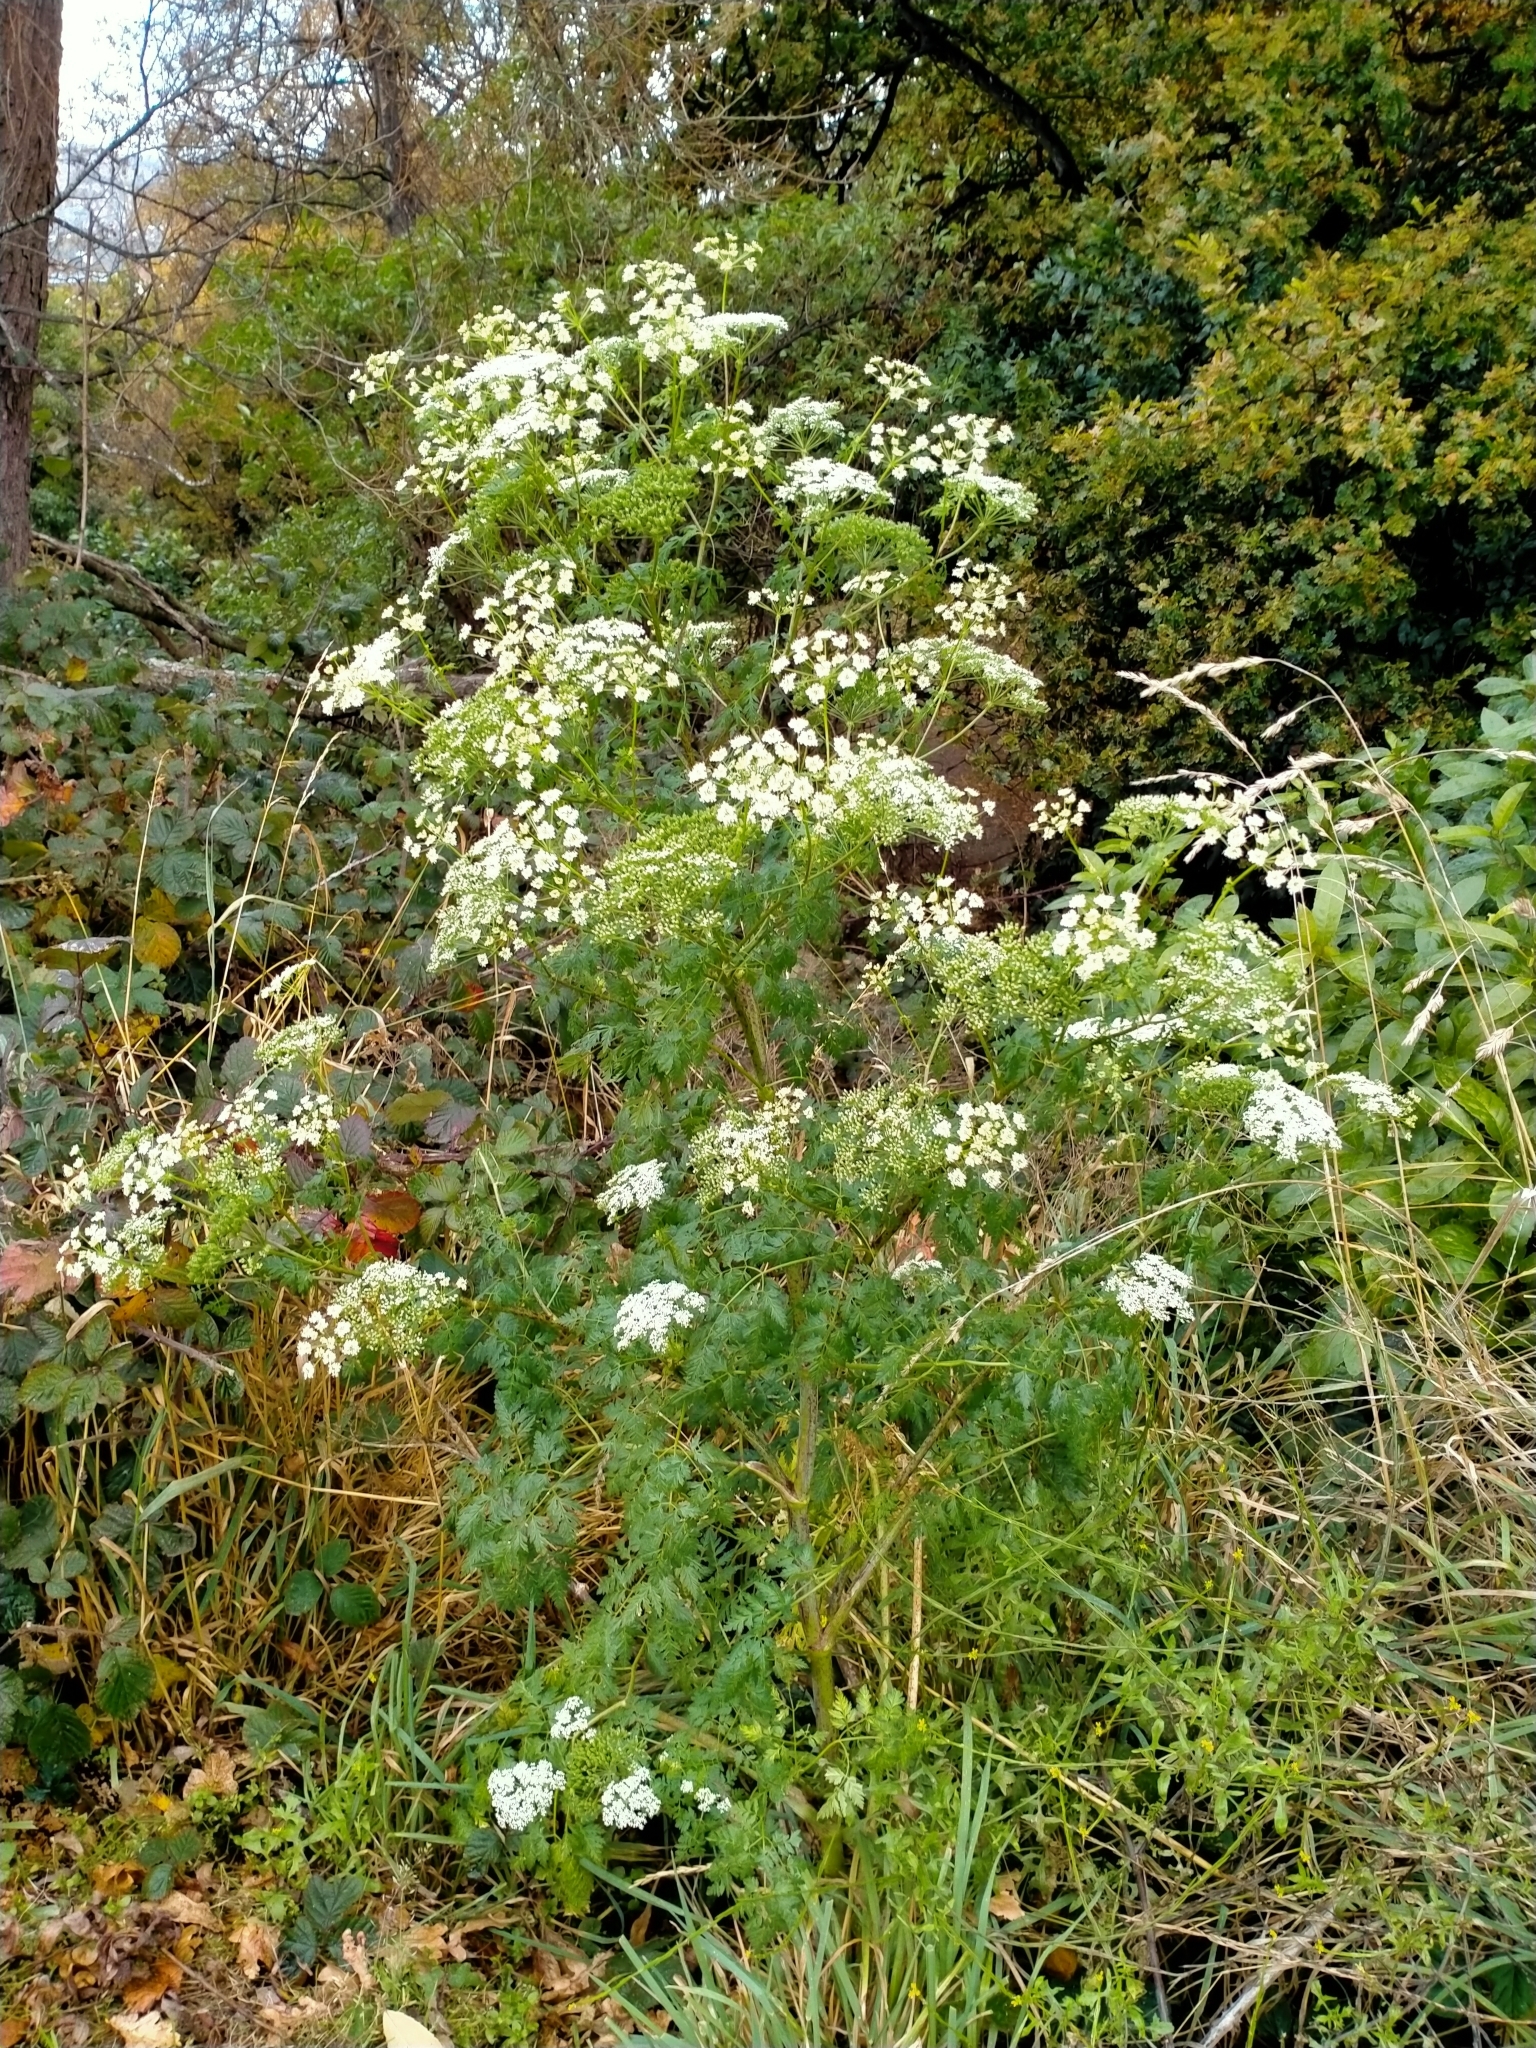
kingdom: Plantae
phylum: Tracheophyta
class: Magnoliopsida
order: Apiales
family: Apiaceae
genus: Conium
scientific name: Conium maculatum
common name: Hemlock
